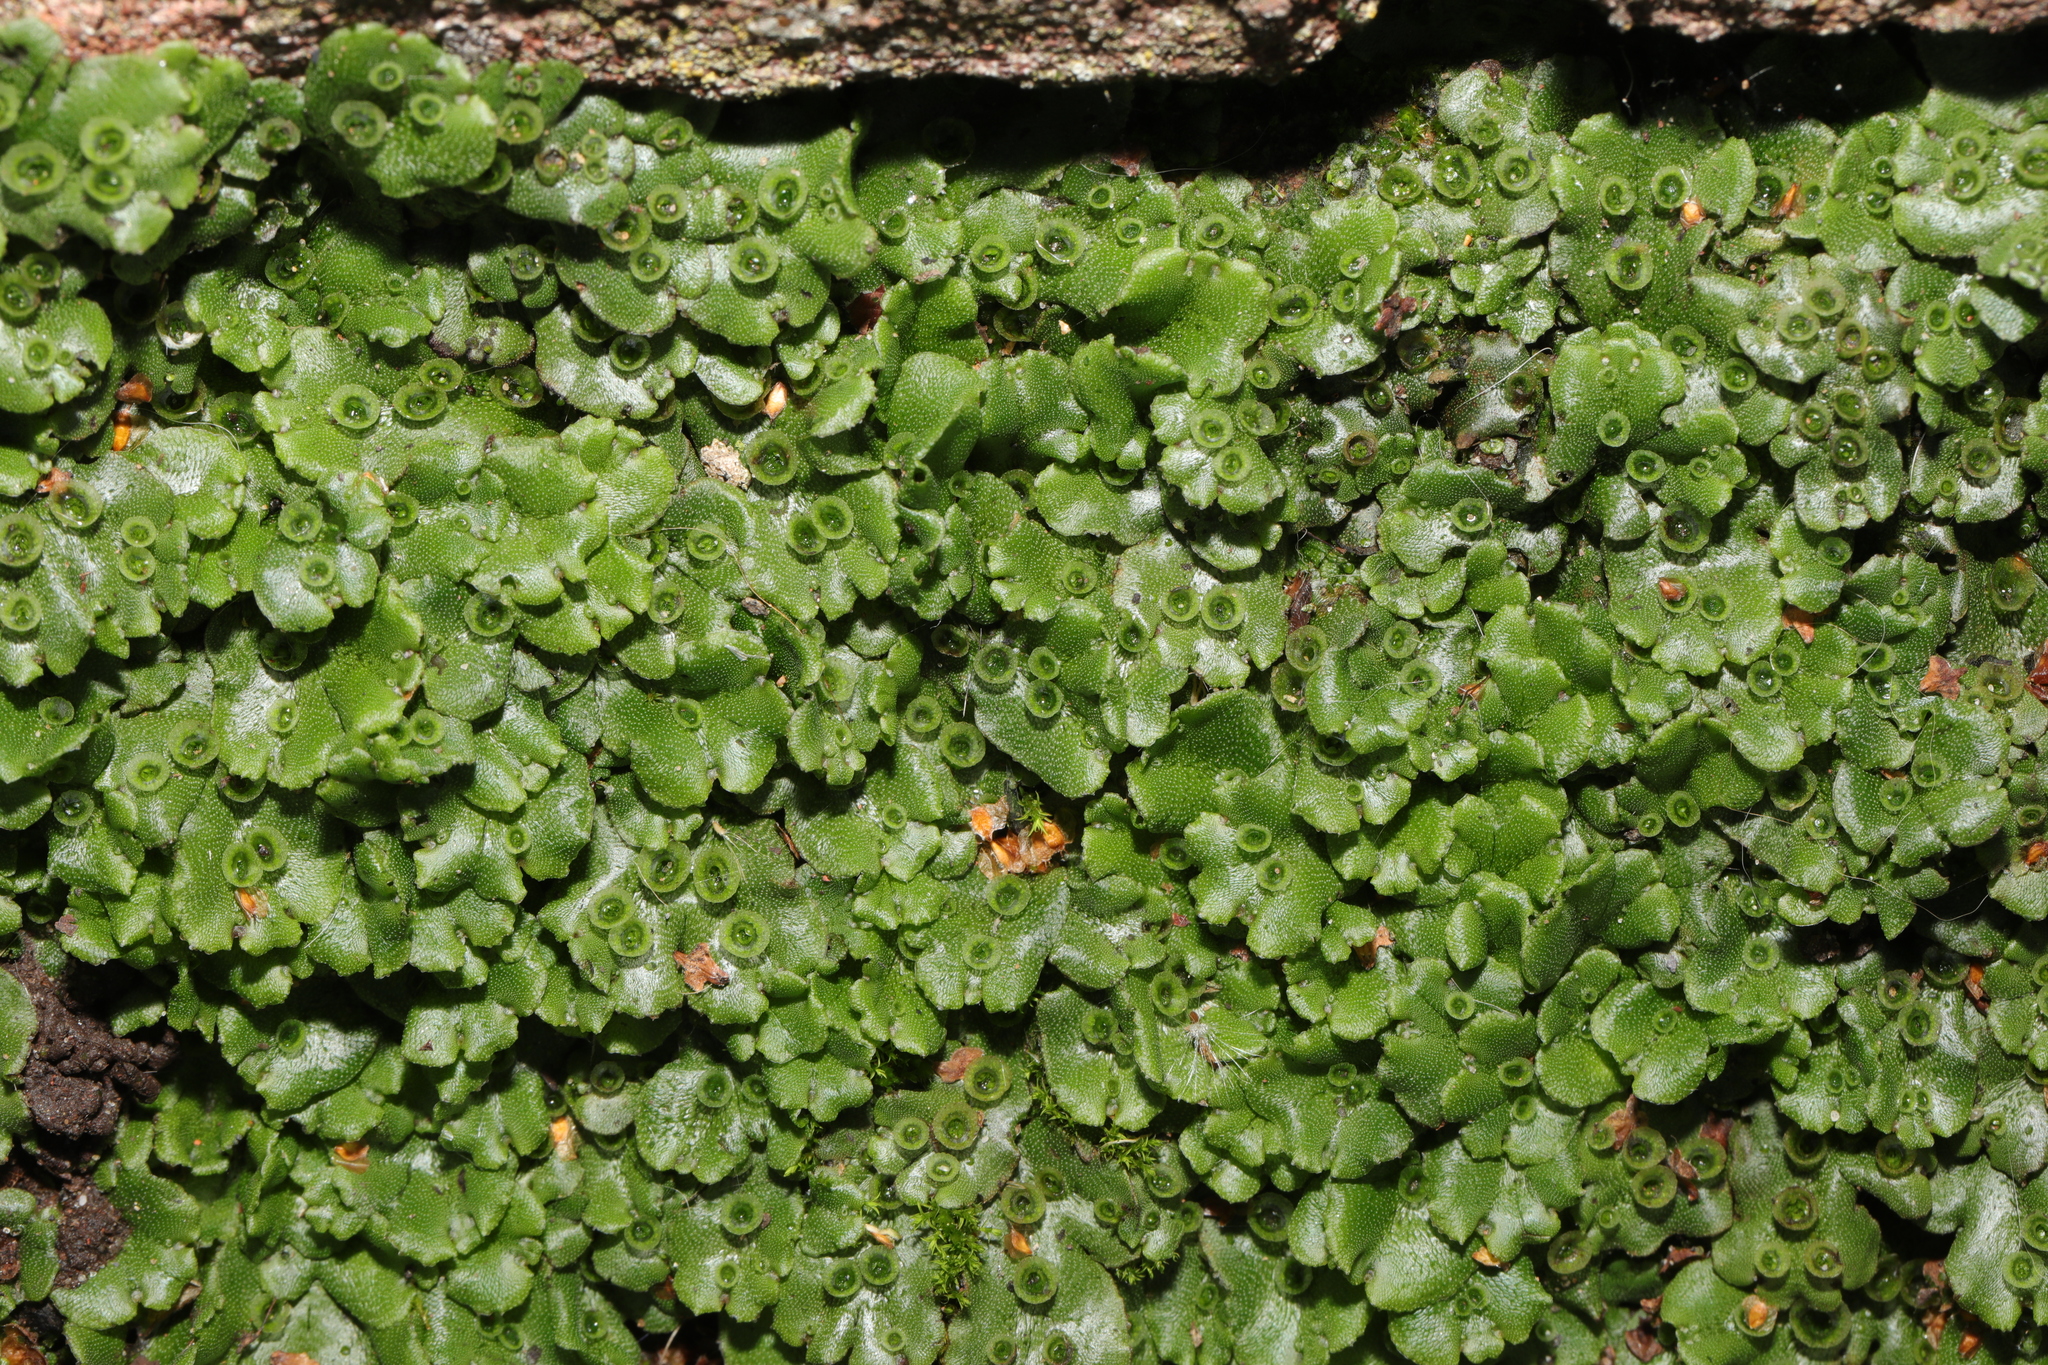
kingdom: Plantae
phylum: Marchantiophyta
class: Marchantiopsida
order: Marchantiales
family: Marchantiaceae
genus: Marchantia
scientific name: Marchantia polymorpha
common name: Common liverwort
